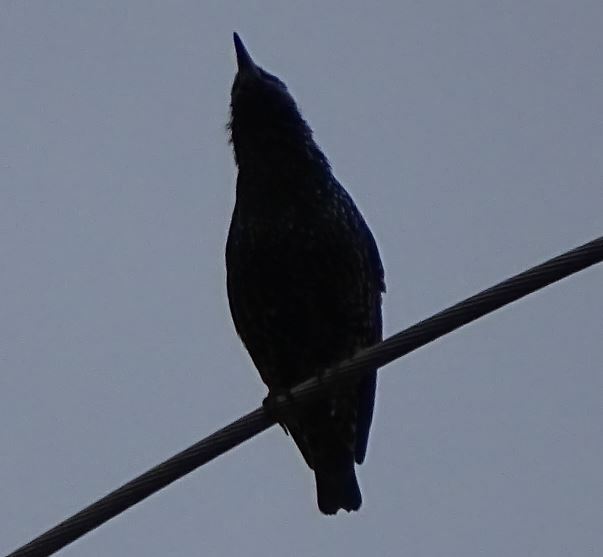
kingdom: Animalia
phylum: Chordata
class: Aves
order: Passeriformes
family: Sturnidae
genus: Sturnus
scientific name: Sturnus vulgaris
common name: Common starling
